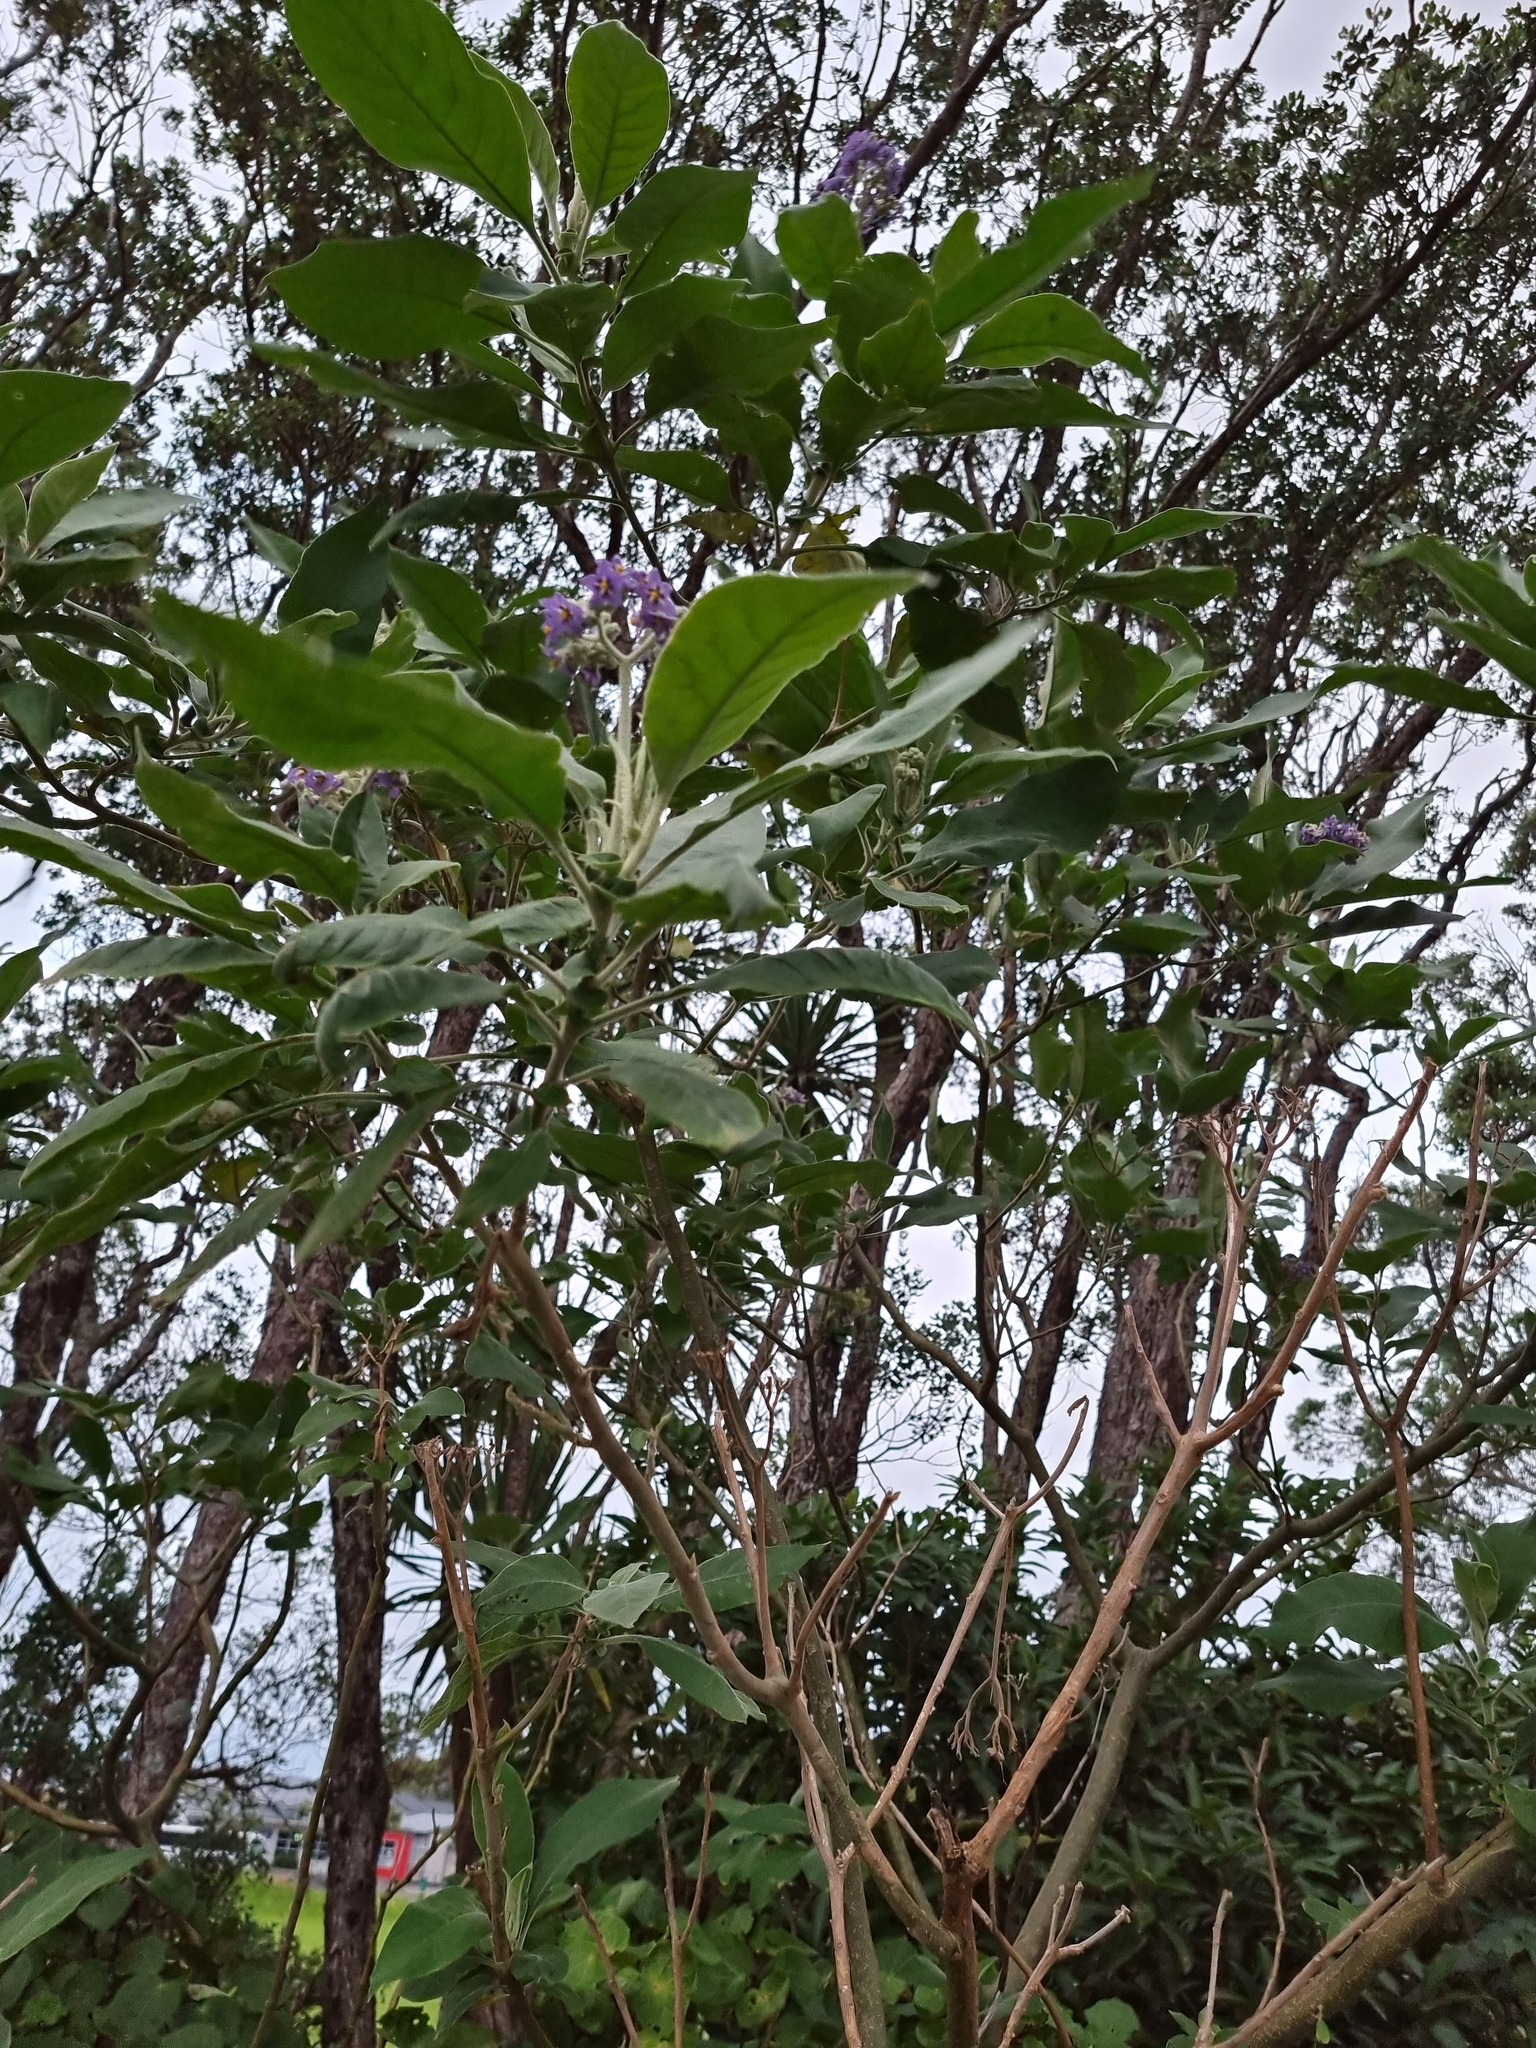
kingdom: Plantae
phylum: Tracheophyta
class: Magnoliopsida
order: Solanales
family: Solanaceae
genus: Solanum
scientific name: Solanum mauritianum
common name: Earleaf nightshade
